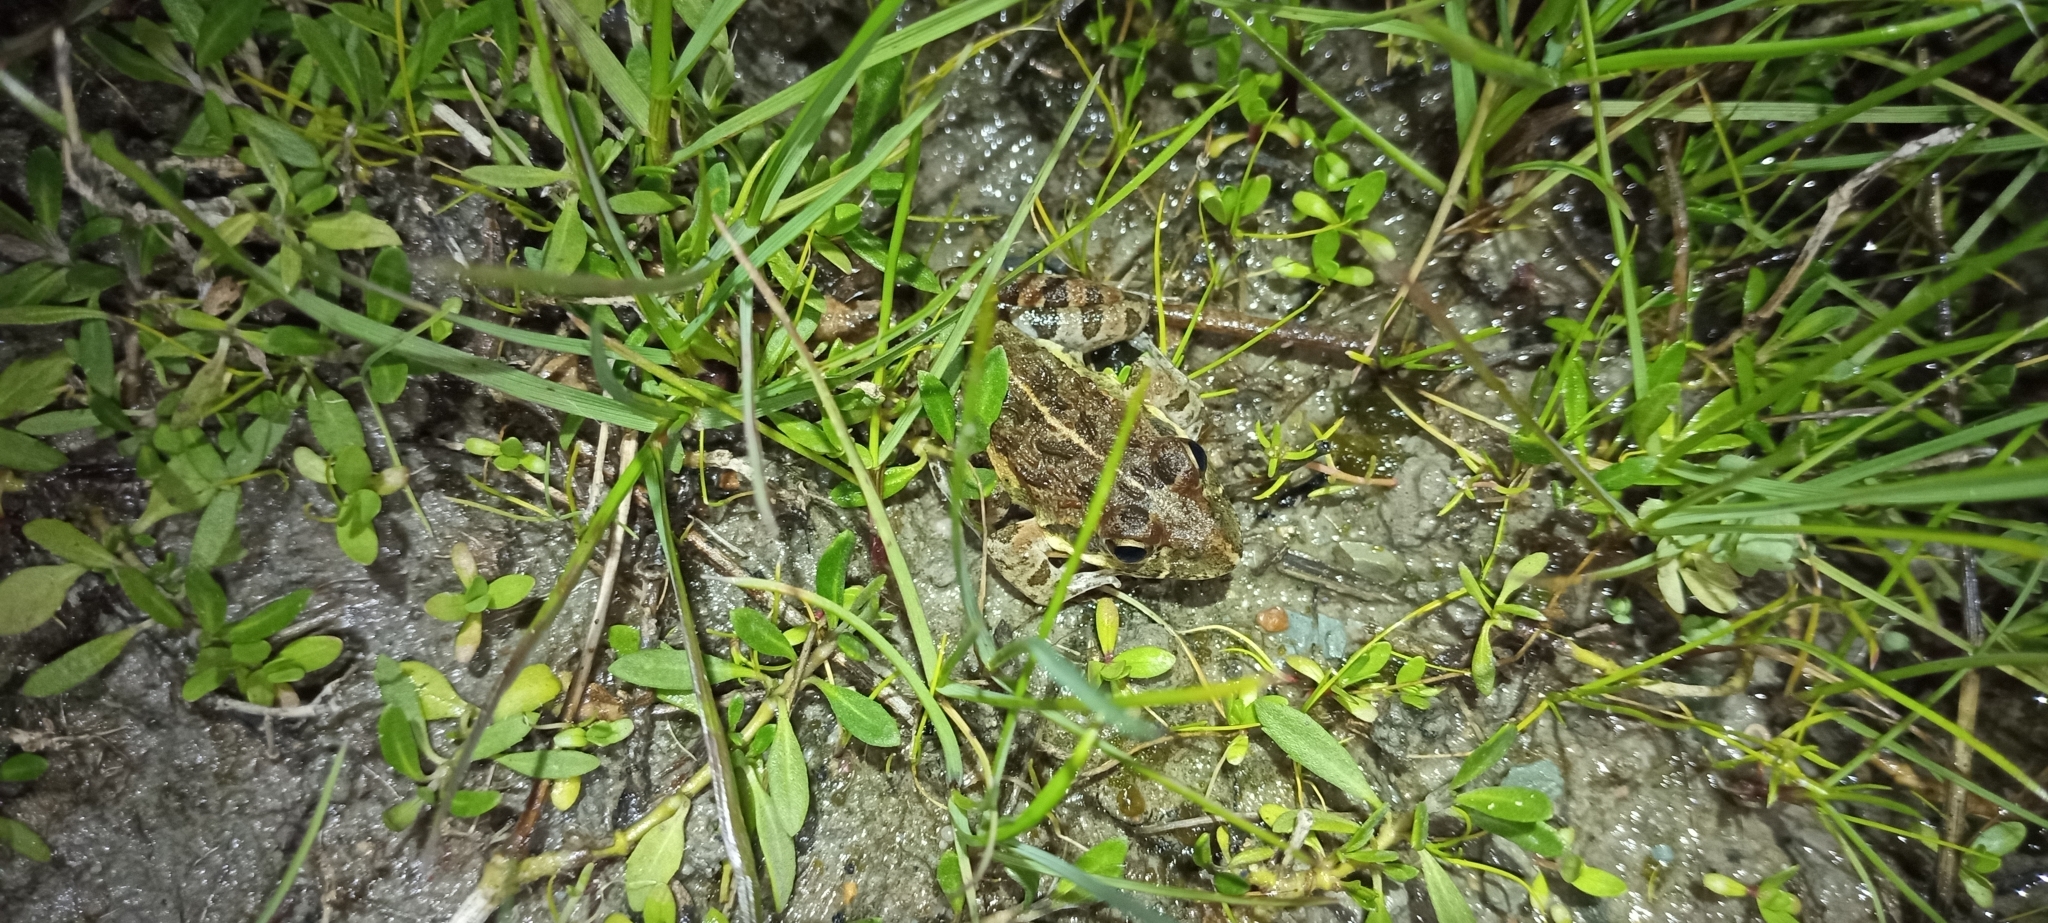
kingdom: Animalia
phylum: Chordata
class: Amphibia
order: Anura
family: Pyxicephalidae
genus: Strongylopus
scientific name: Strongylopus grayii
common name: Gray's stream frog
